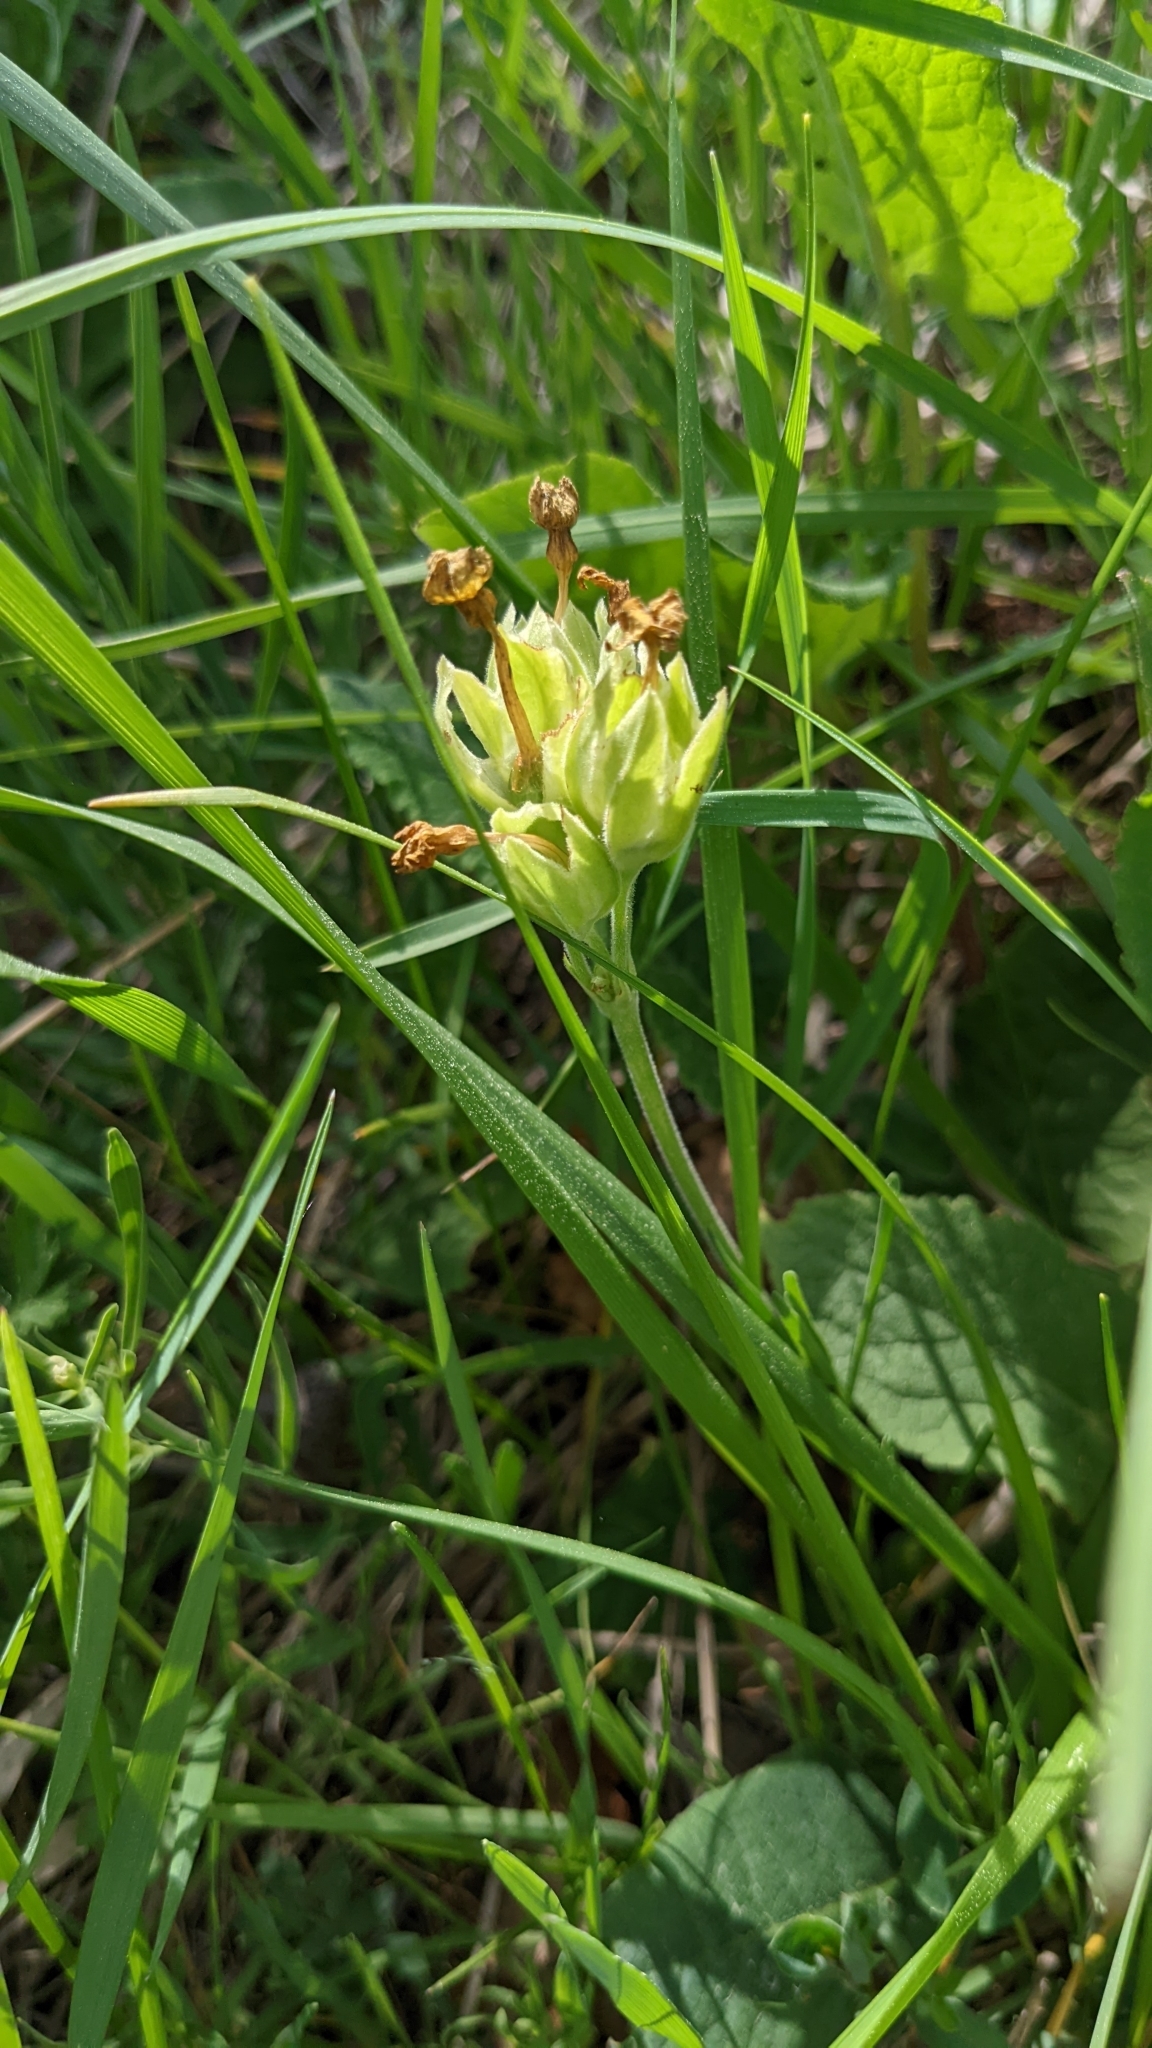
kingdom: Plantae
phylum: Tracheophyta
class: Magnoliopsida
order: Ericales
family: Primulaceae
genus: Primula
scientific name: Primula vulgaris
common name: Primrose
